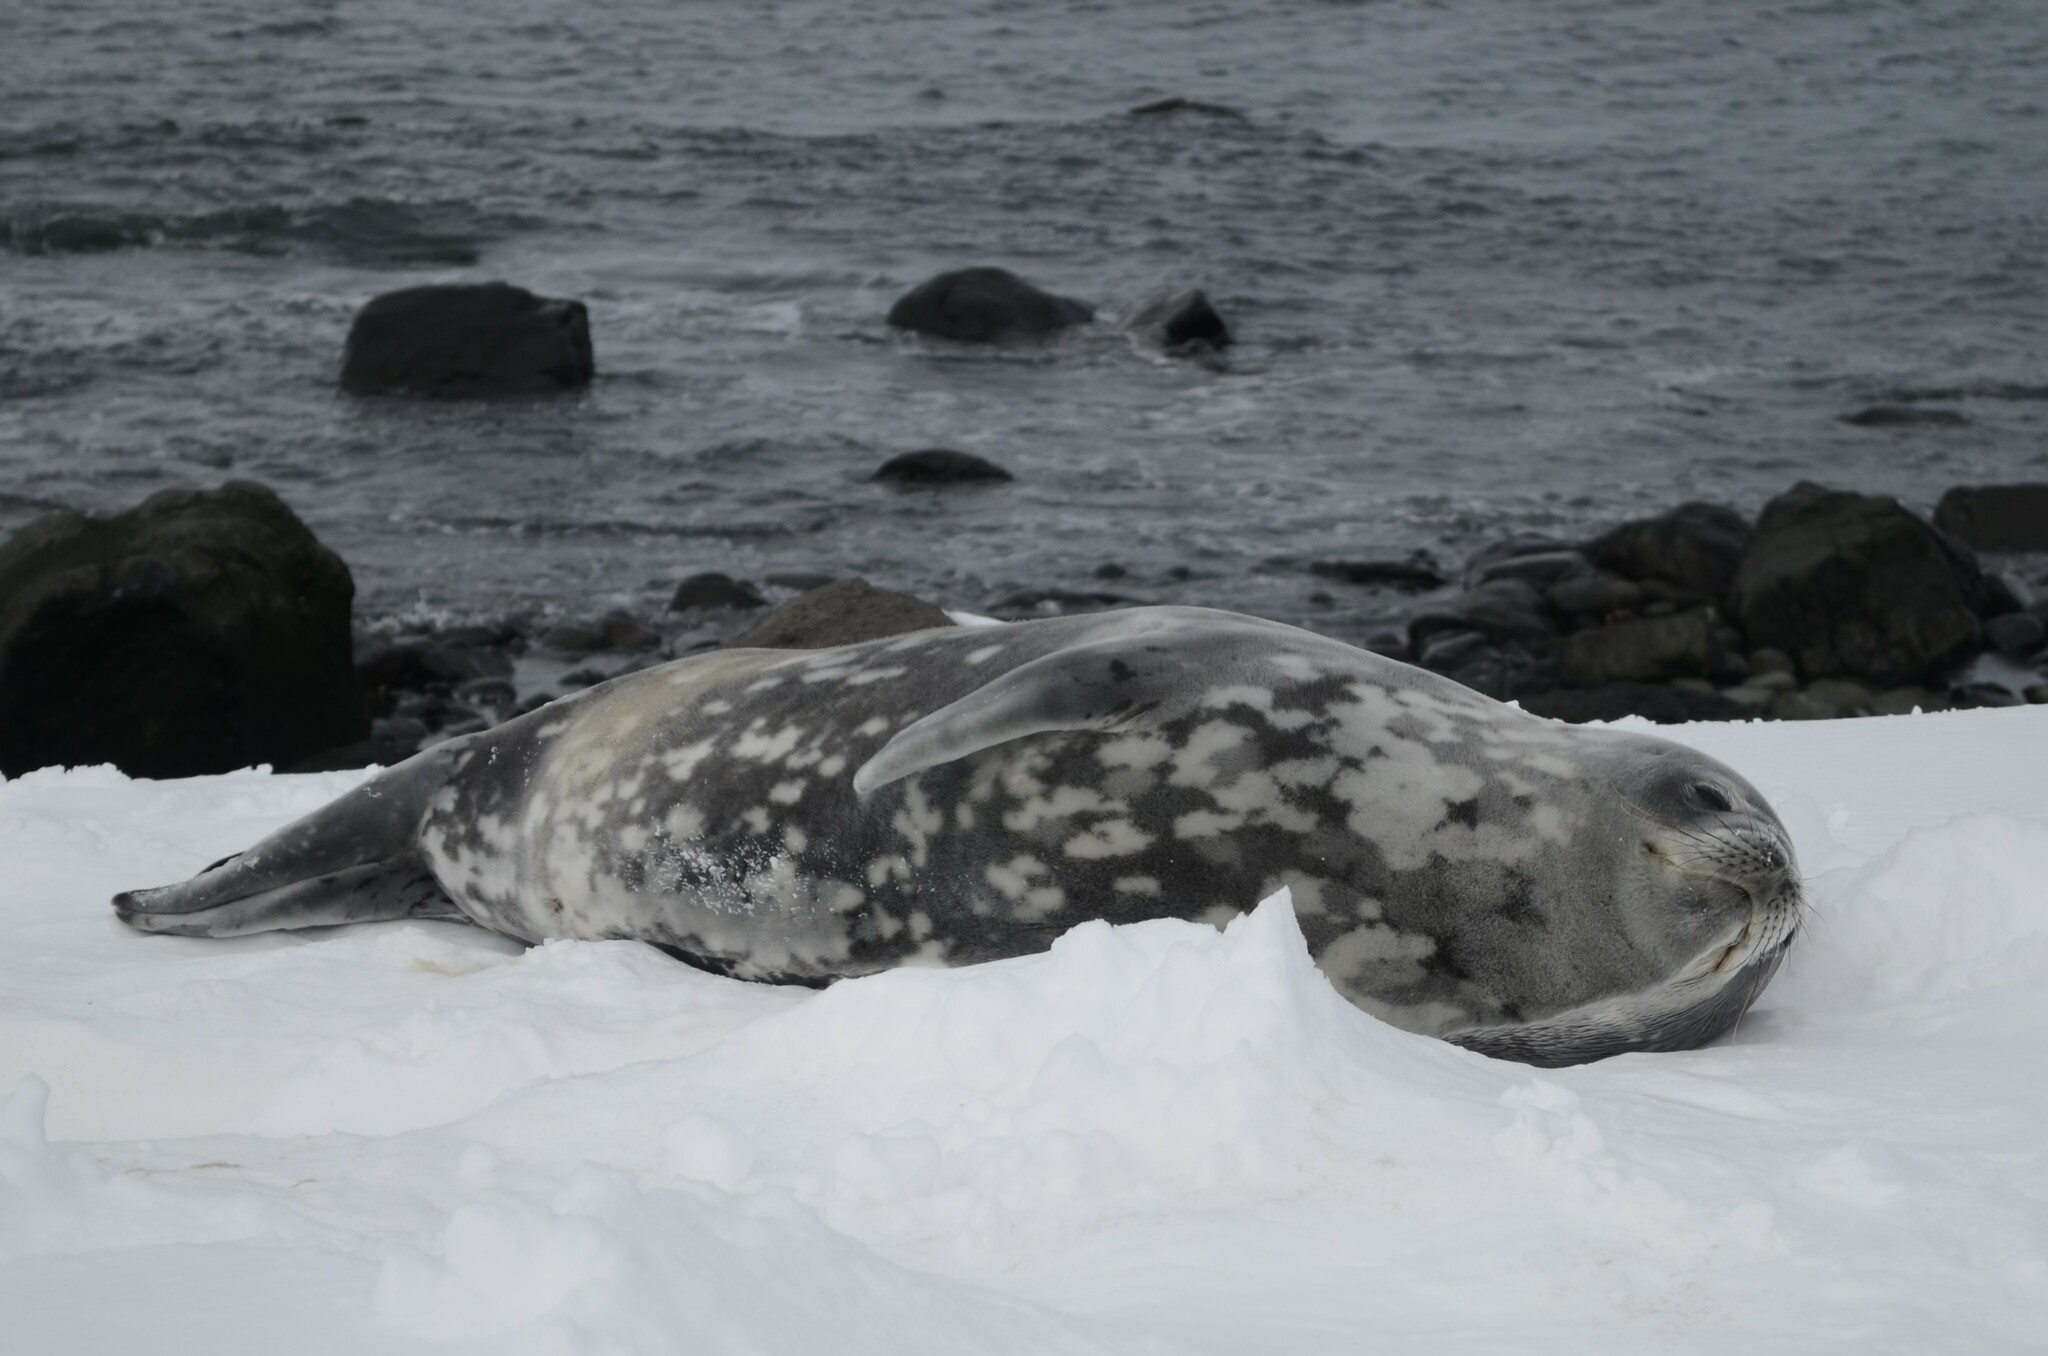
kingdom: Animalia
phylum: Chordata
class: Mammalia
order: Carnivora
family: Phocidae
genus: Leptonychotes
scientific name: Leptonychotes weddellii
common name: Weddell seal
